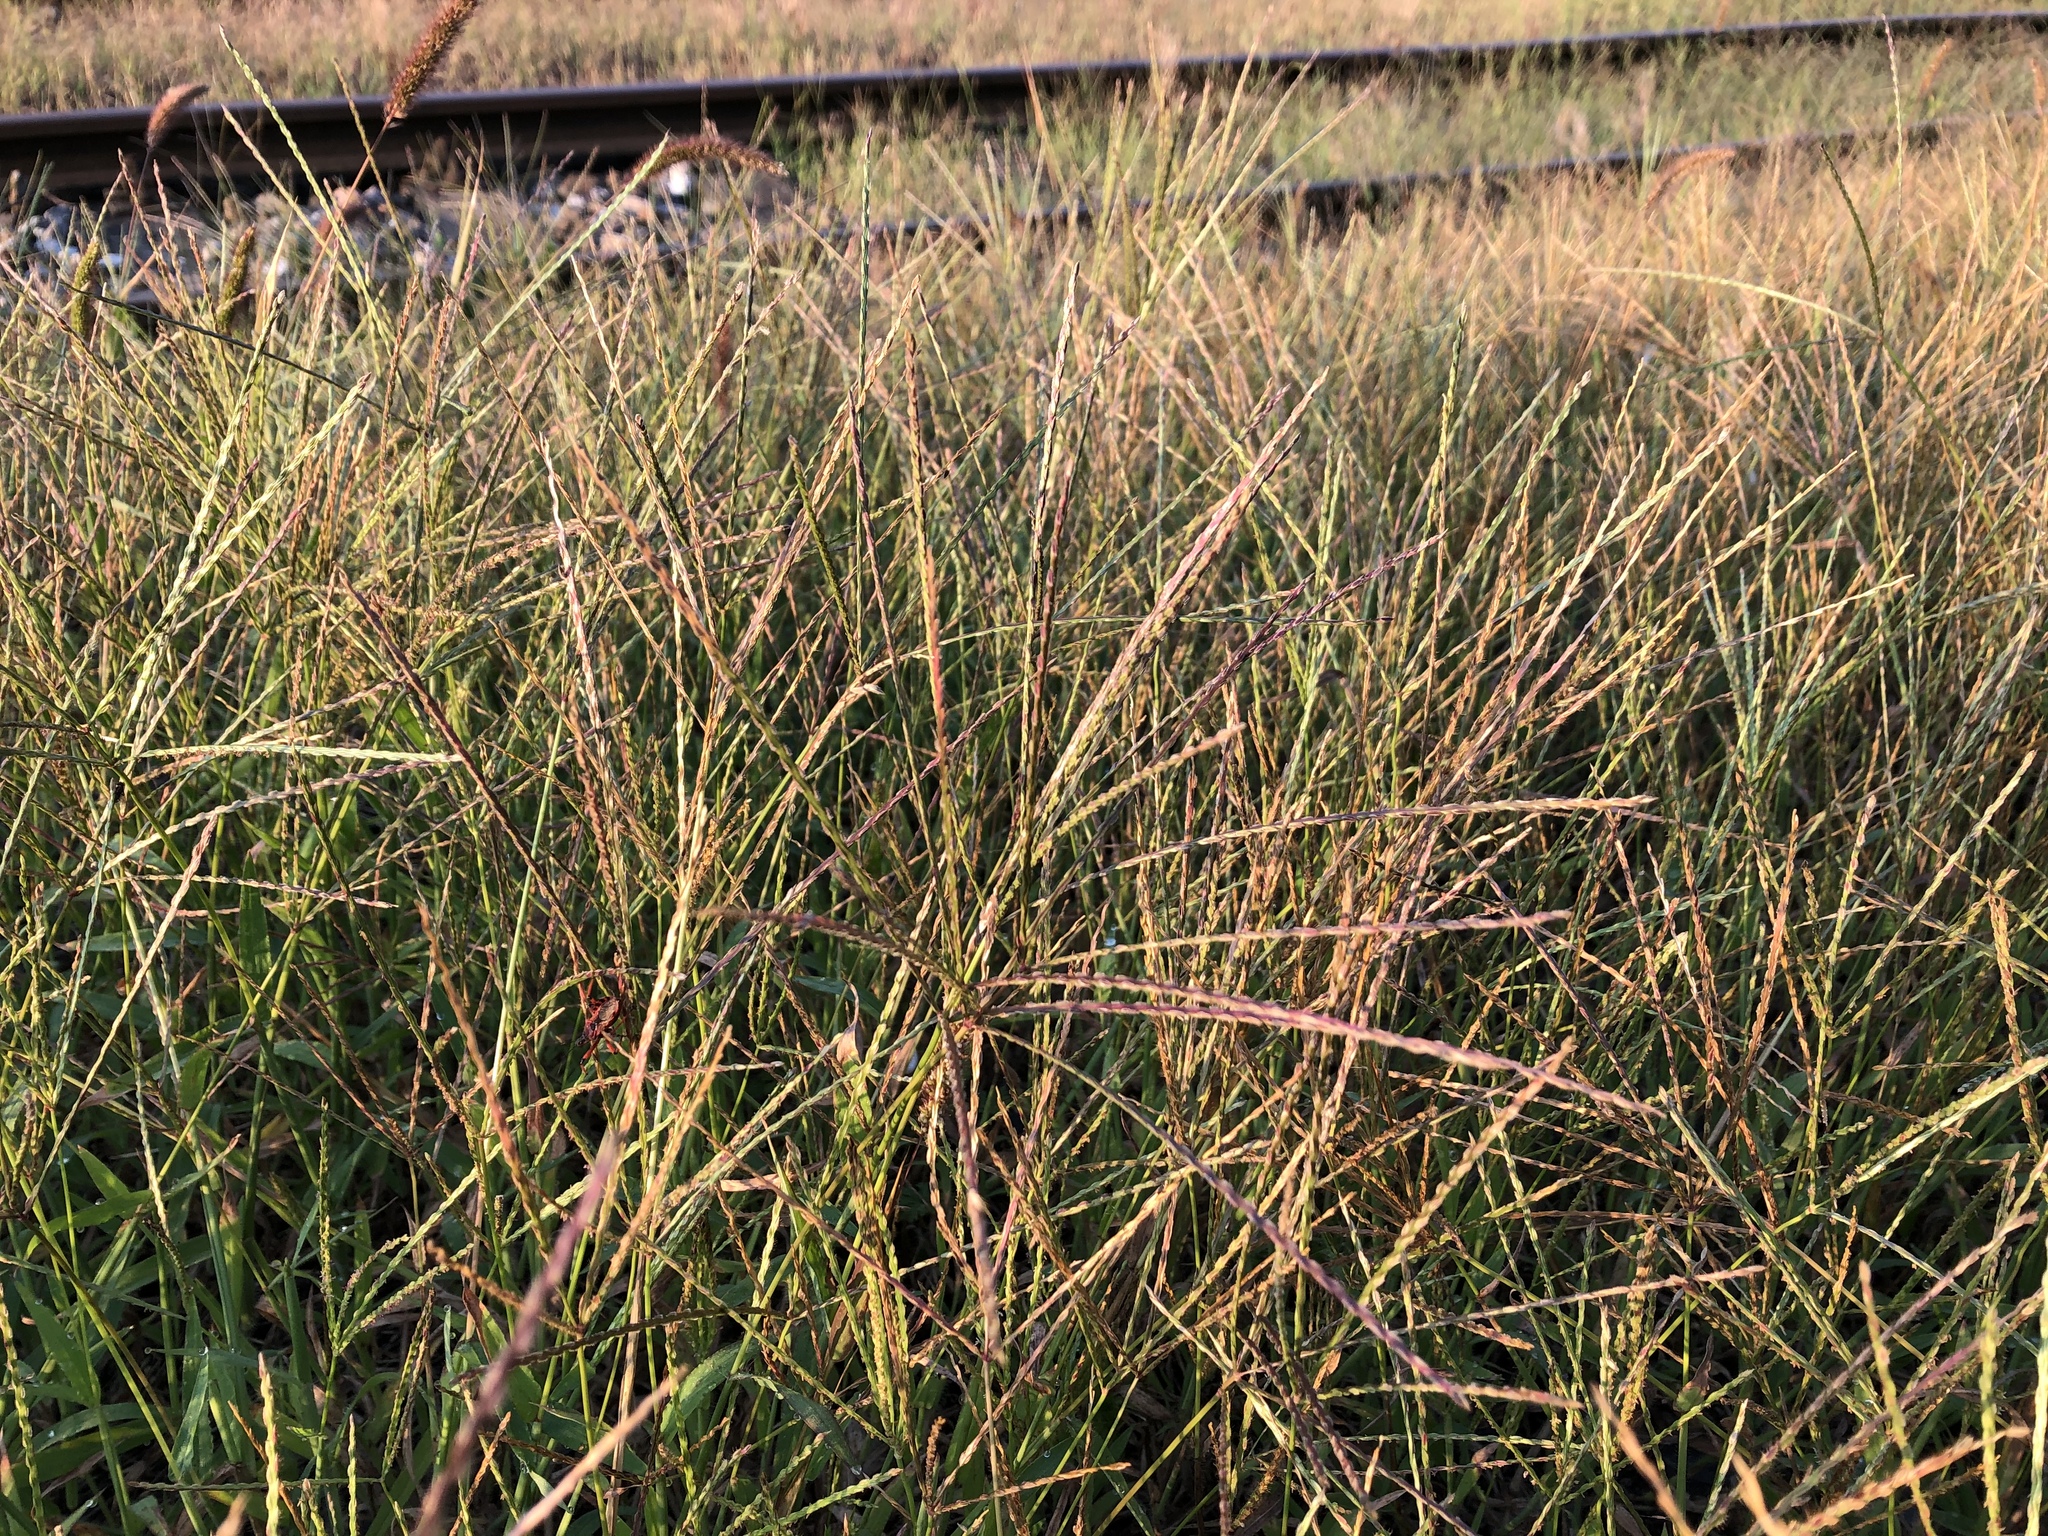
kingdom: Plantae
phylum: Tracheophyta
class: Liliopsida
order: Poales
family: Poaceae
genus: Digitaria
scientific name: Digitaria sanguinalis
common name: Hairy crabgrass
